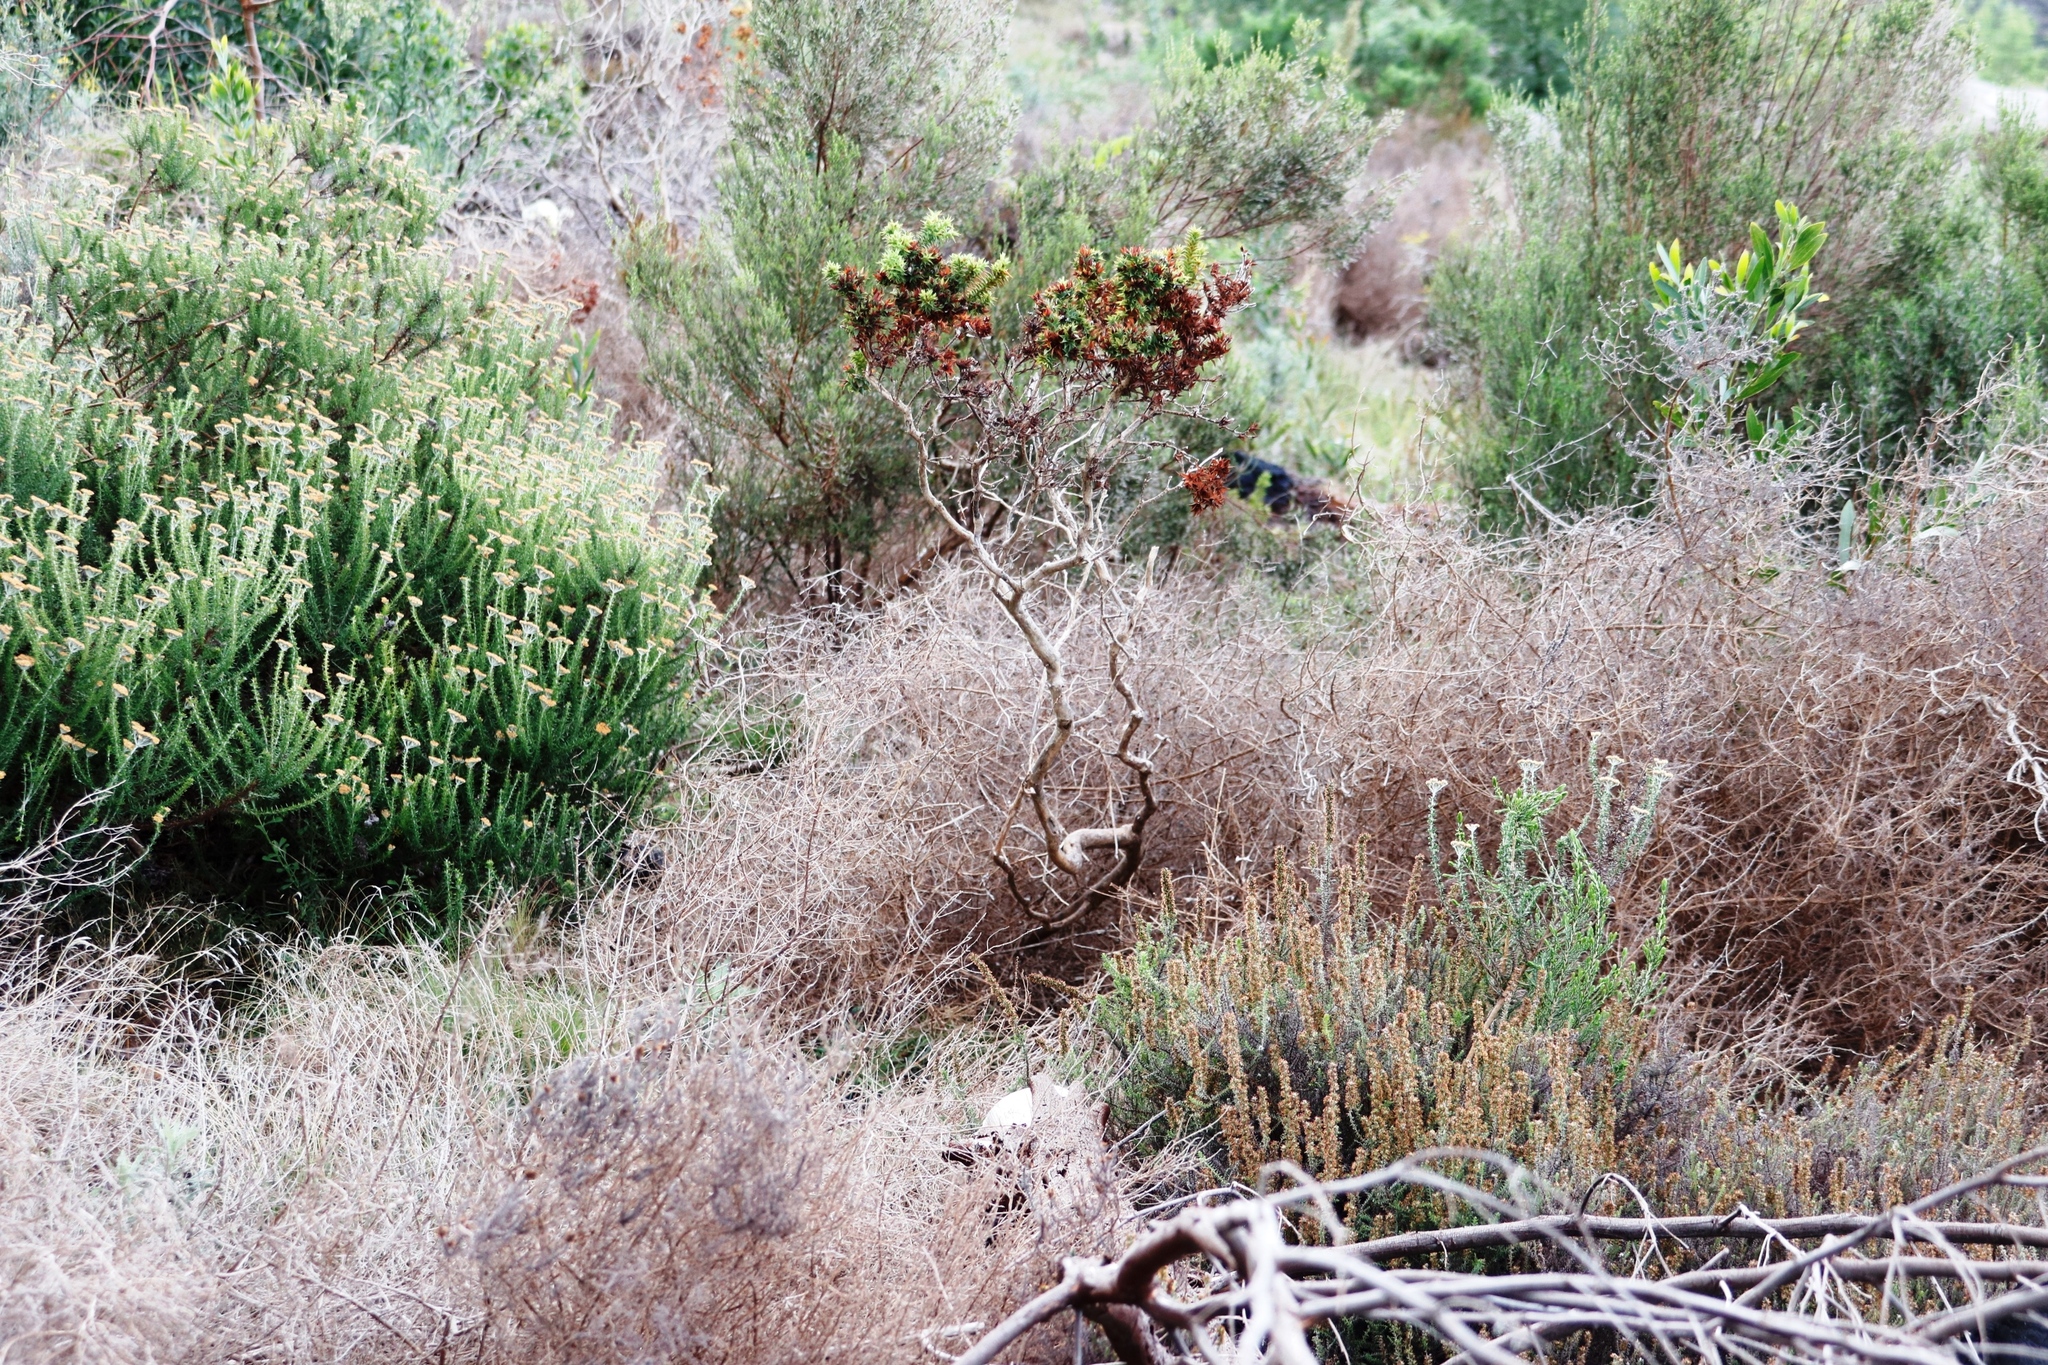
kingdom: Plantae
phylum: Tracheophyta
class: Magnoliopsida
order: Fabales
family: Fabaceae
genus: Aspalathus
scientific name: Aspalathus cordata
